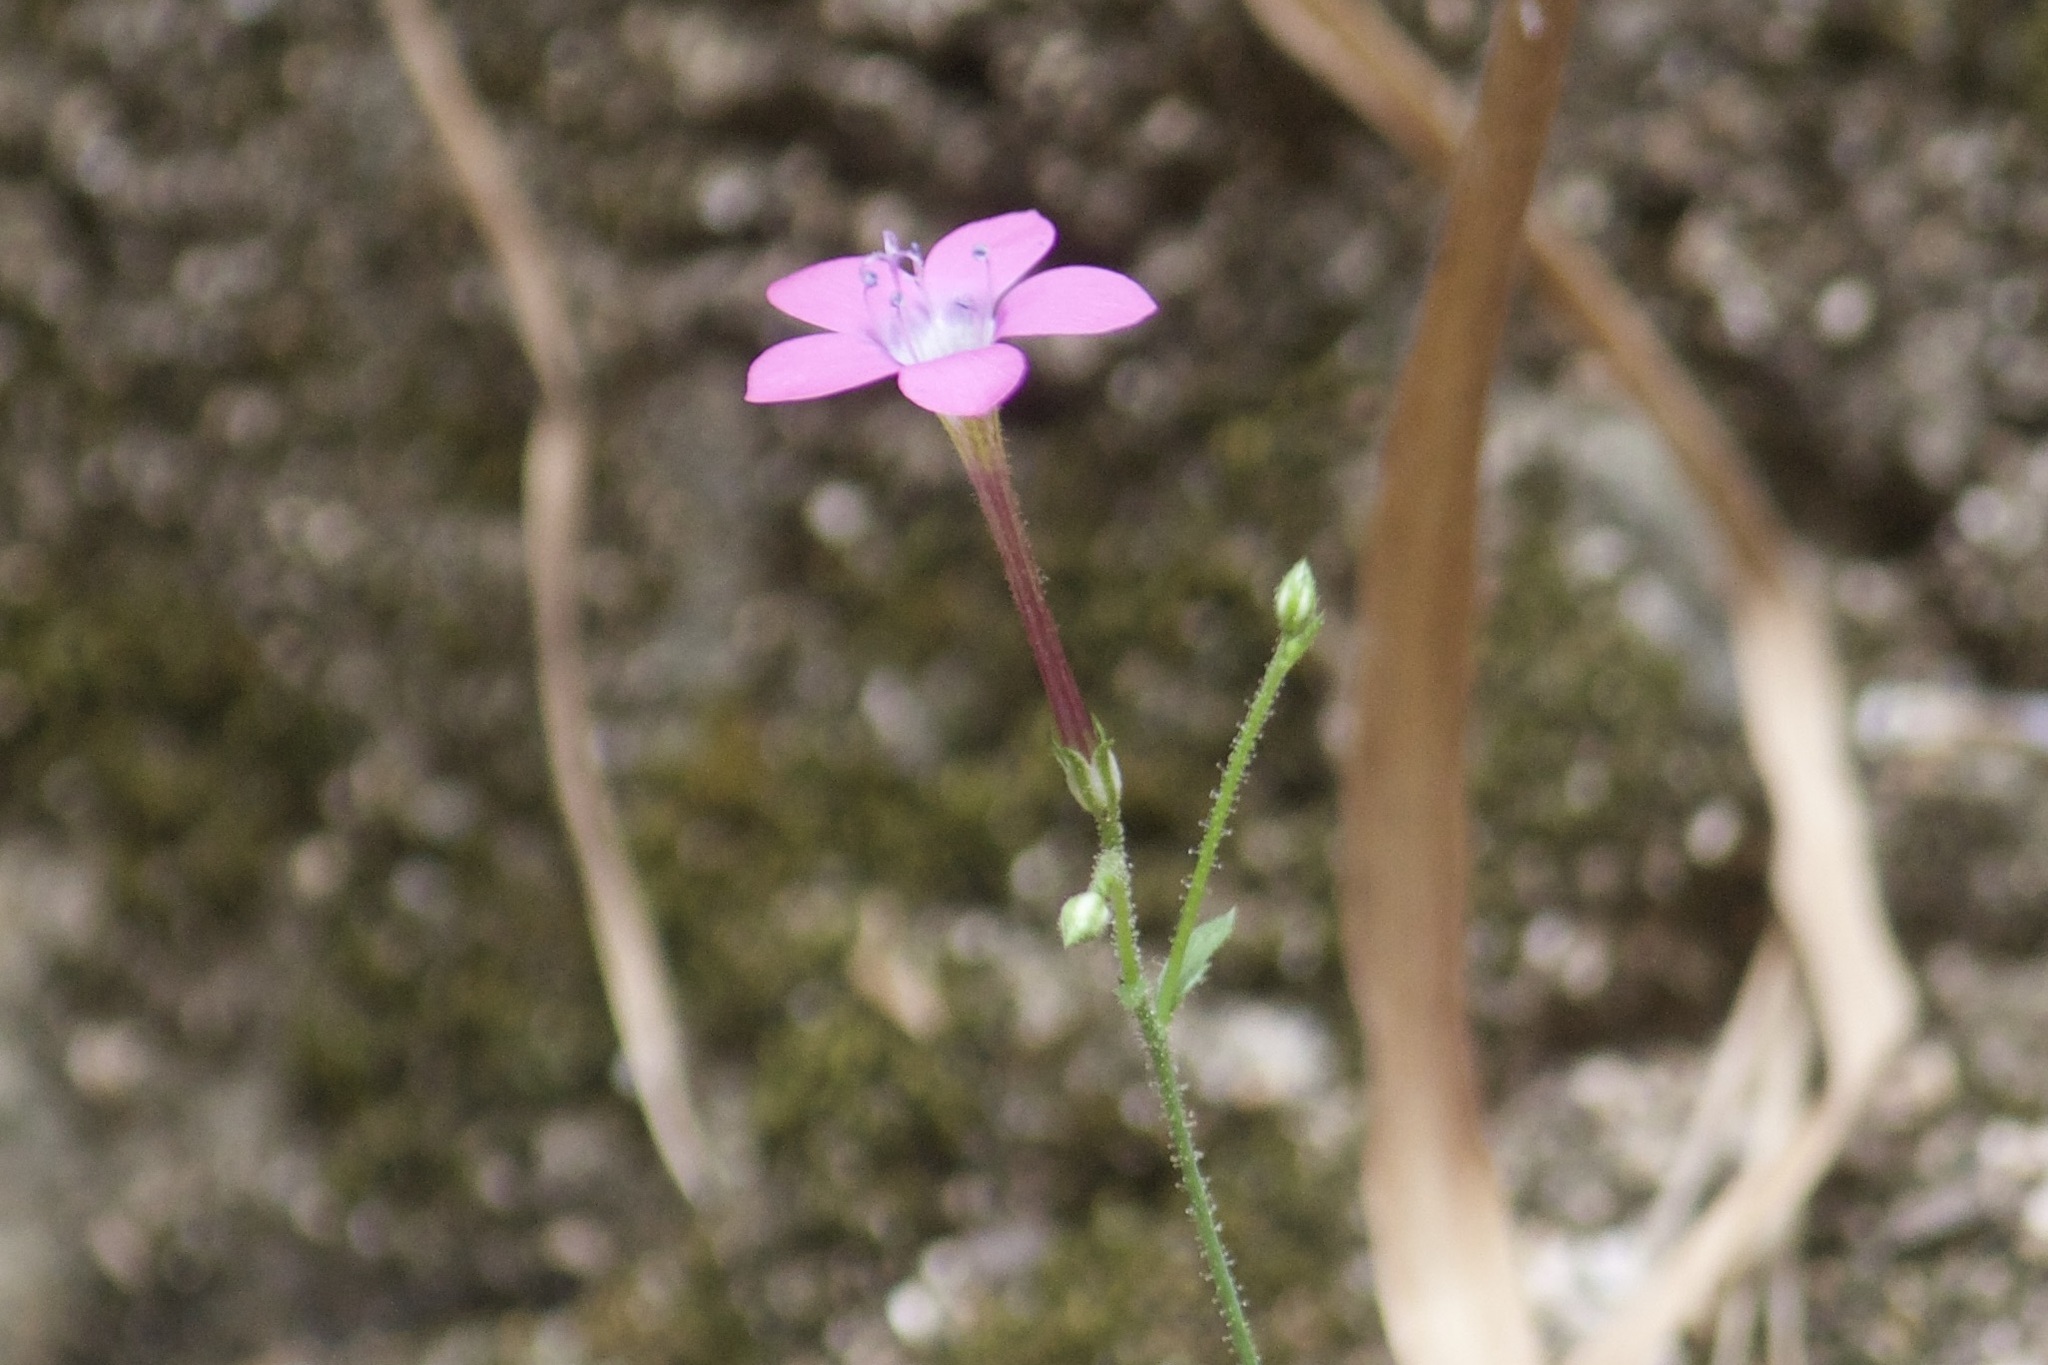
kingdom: Plantae
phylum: Tracheophyta
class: Magnoliopsida
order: Ericales
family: Polemoniaceae
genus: Saltugilia
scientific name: Saltugilia splendens
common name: Grinnell's gilia
